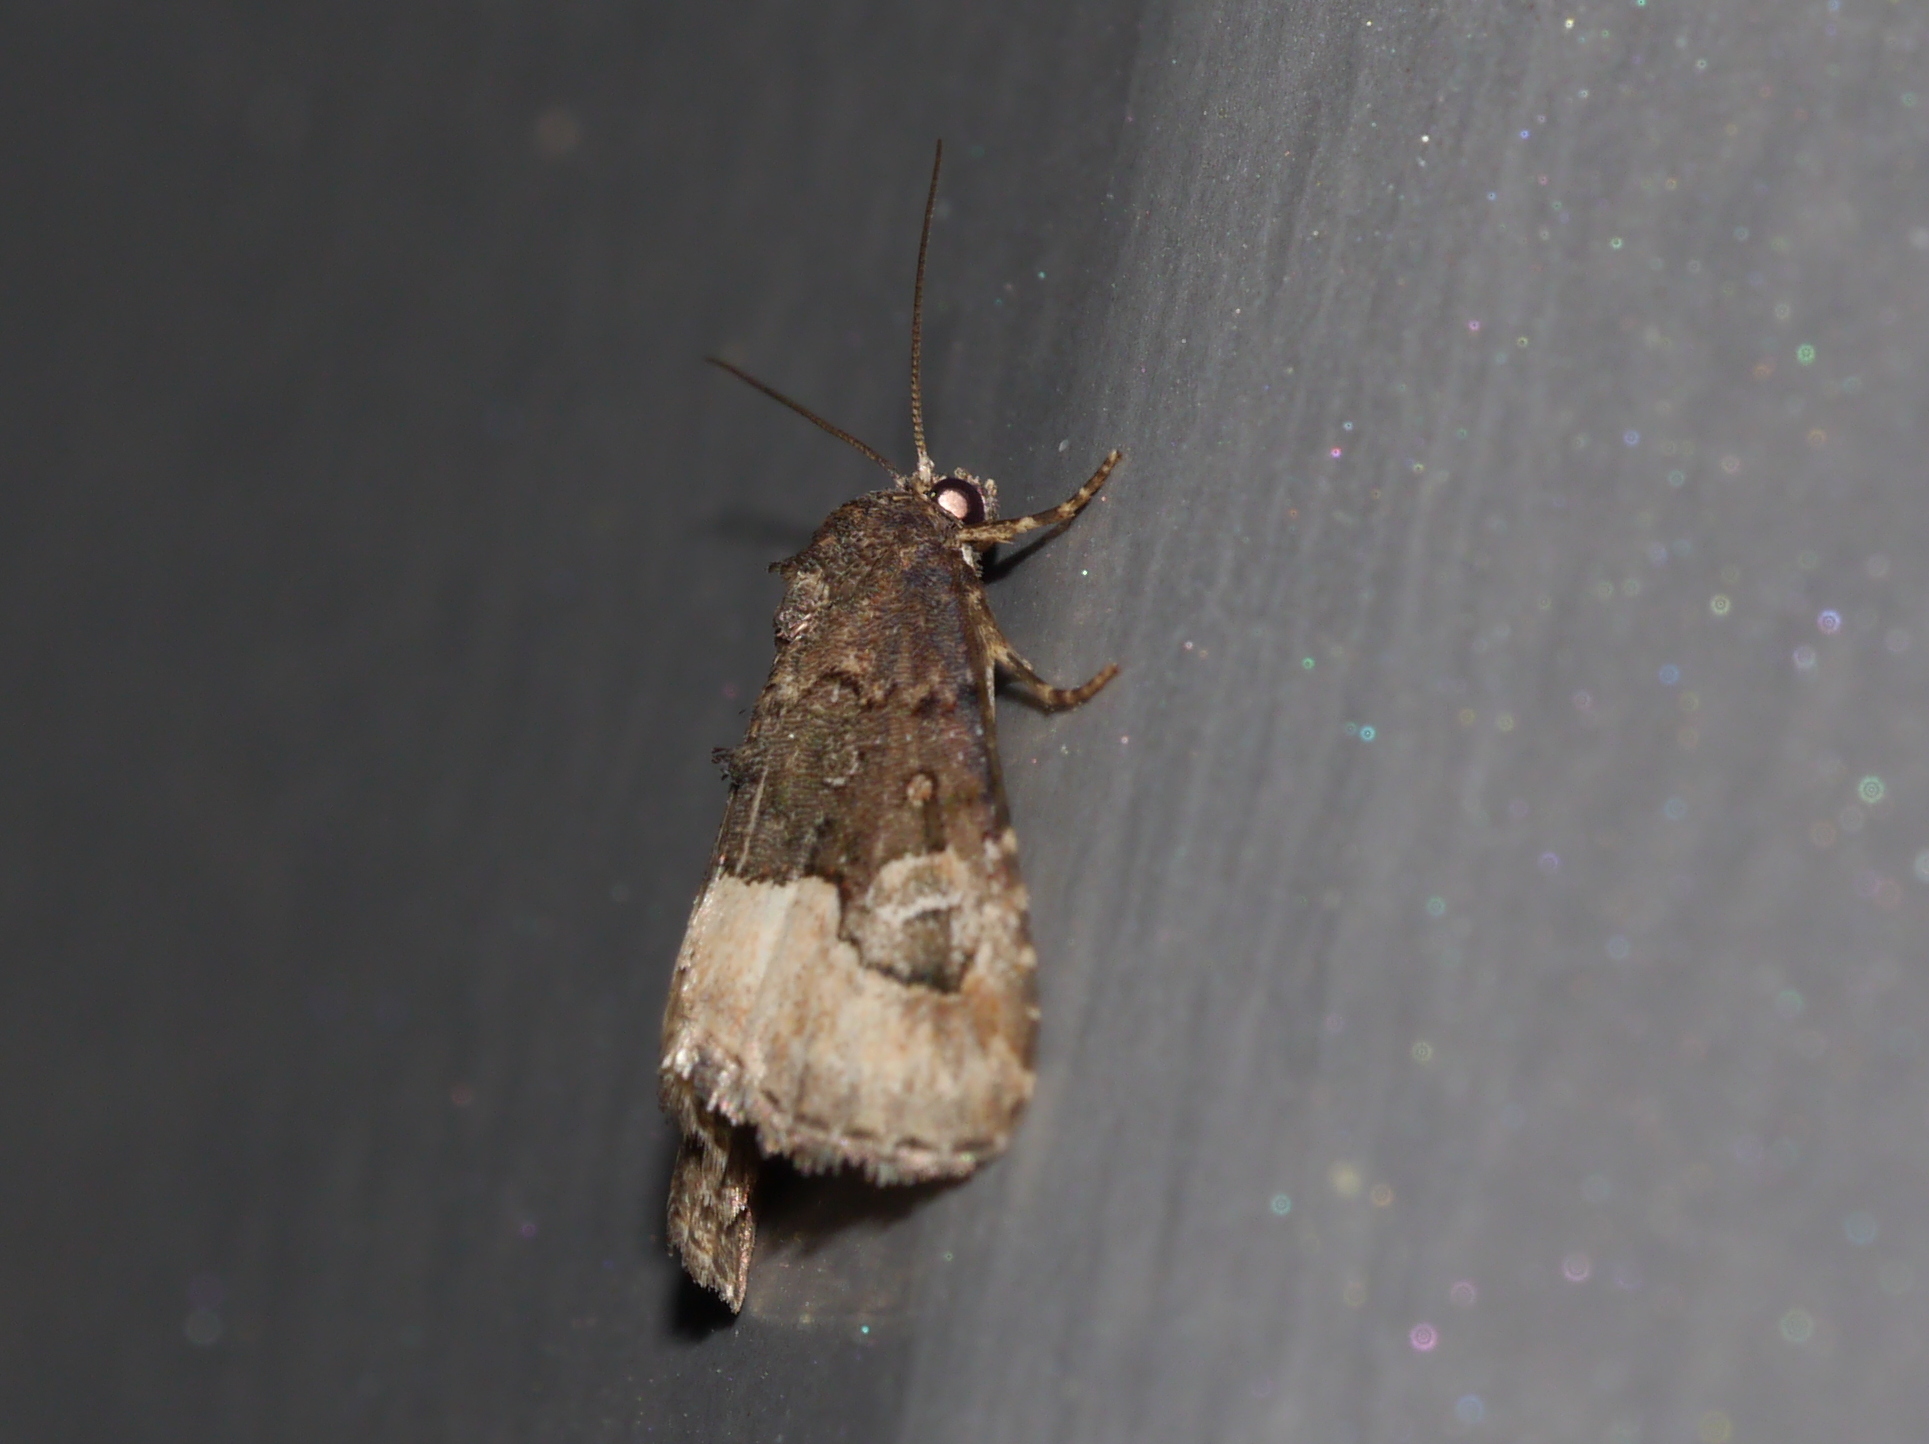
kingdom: Animalia
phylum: Arthropoda
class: Insecta
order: Lepidoptera
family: Noctuidae
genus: Ozarba
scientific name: Ozarba propera
